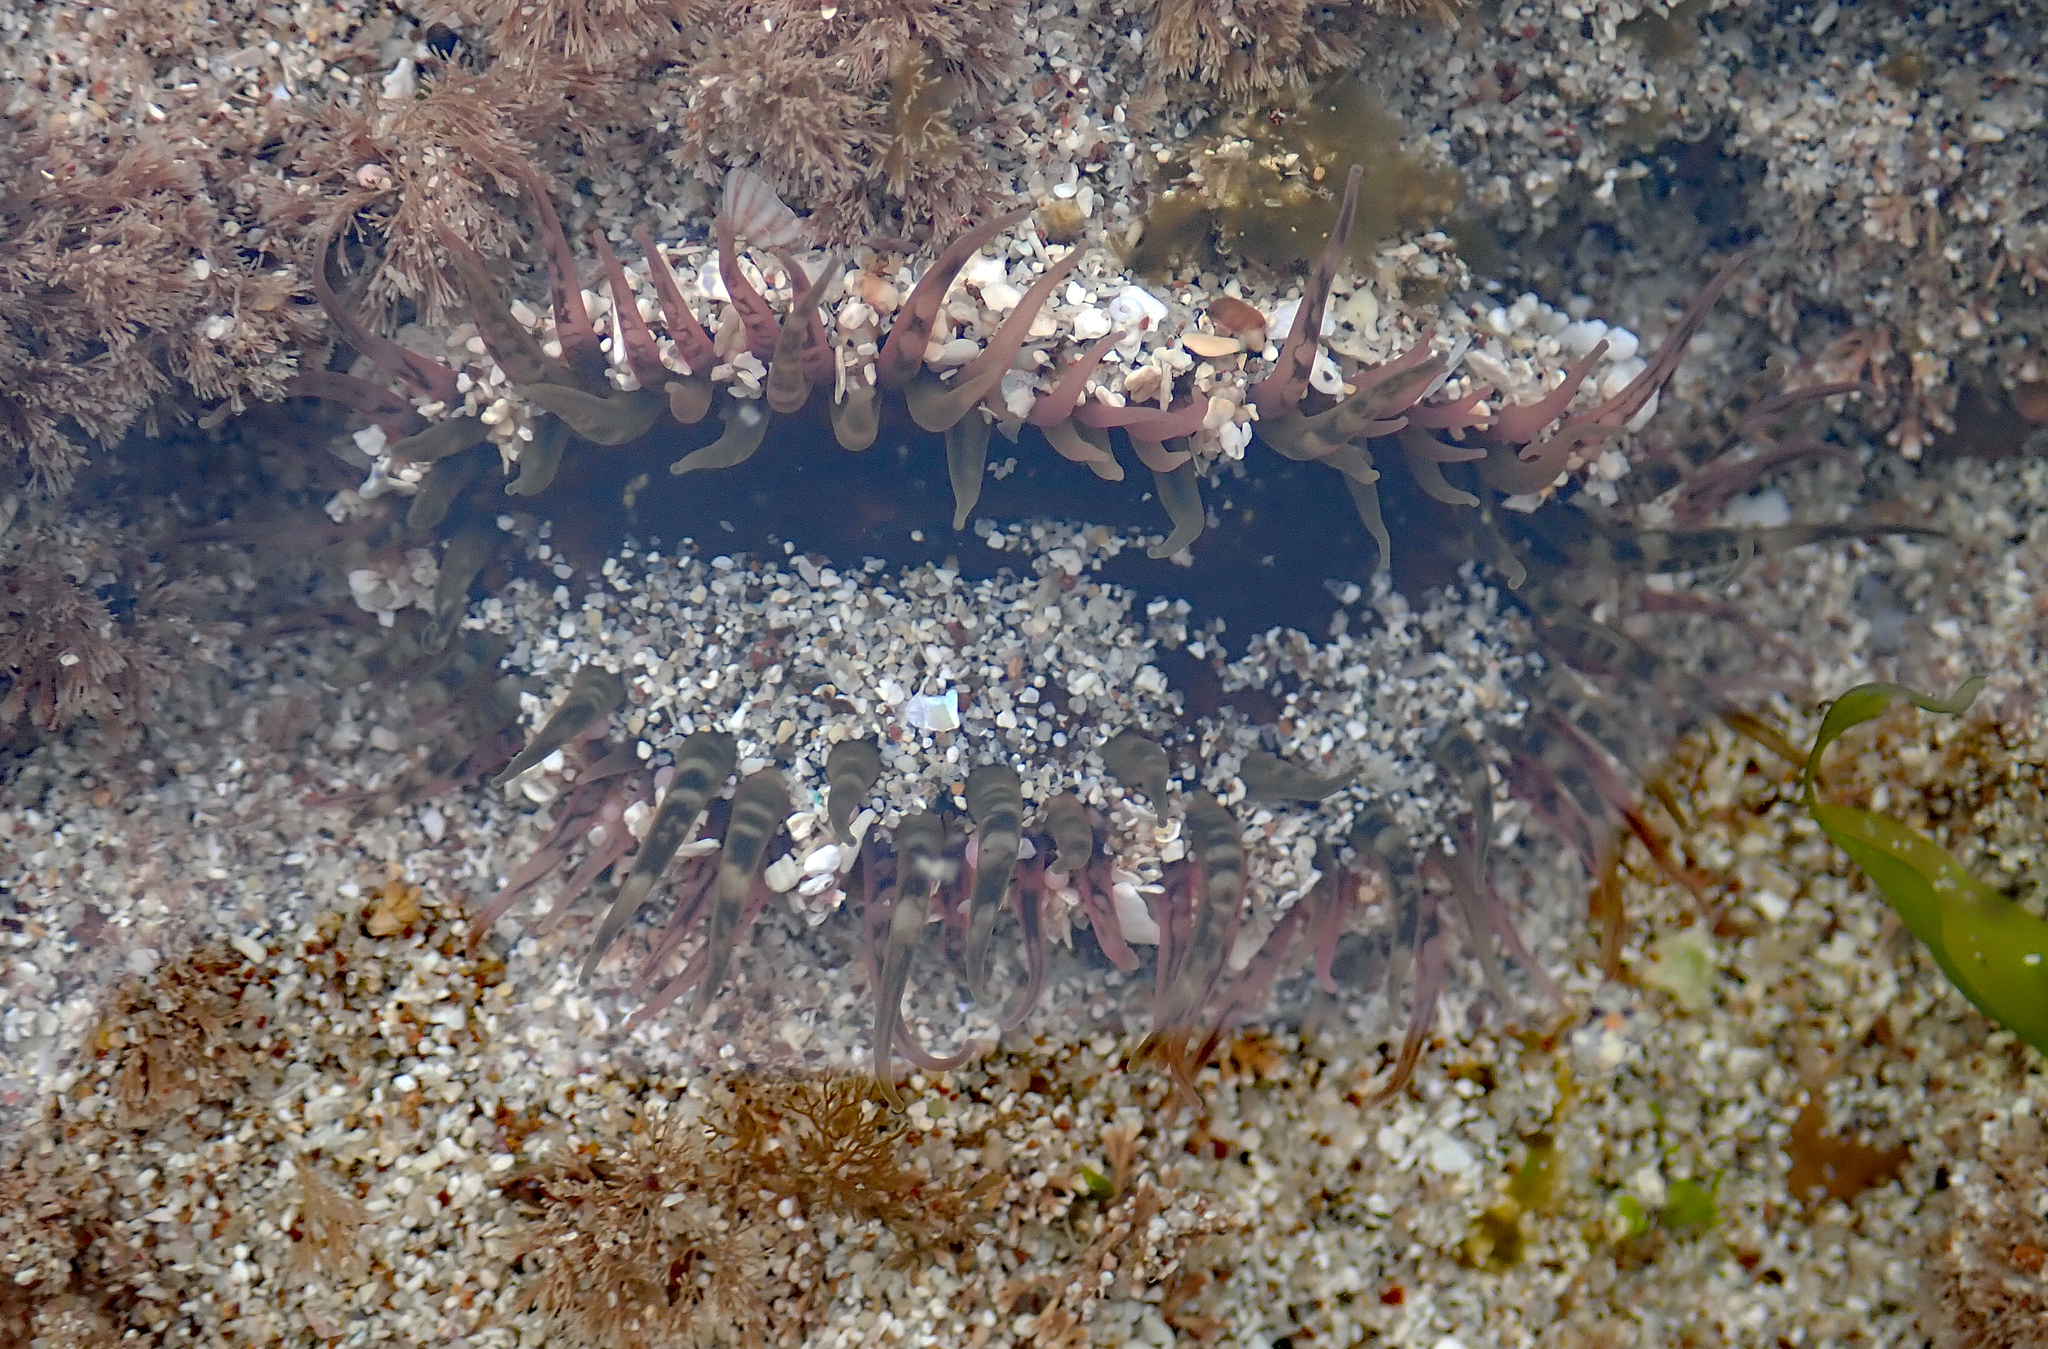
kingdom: Animalia
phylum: Cnidaria
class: Anthozoa
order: Actiniaria
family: Actiniidae
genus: Oulactis
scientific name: Oulactis muscosa
